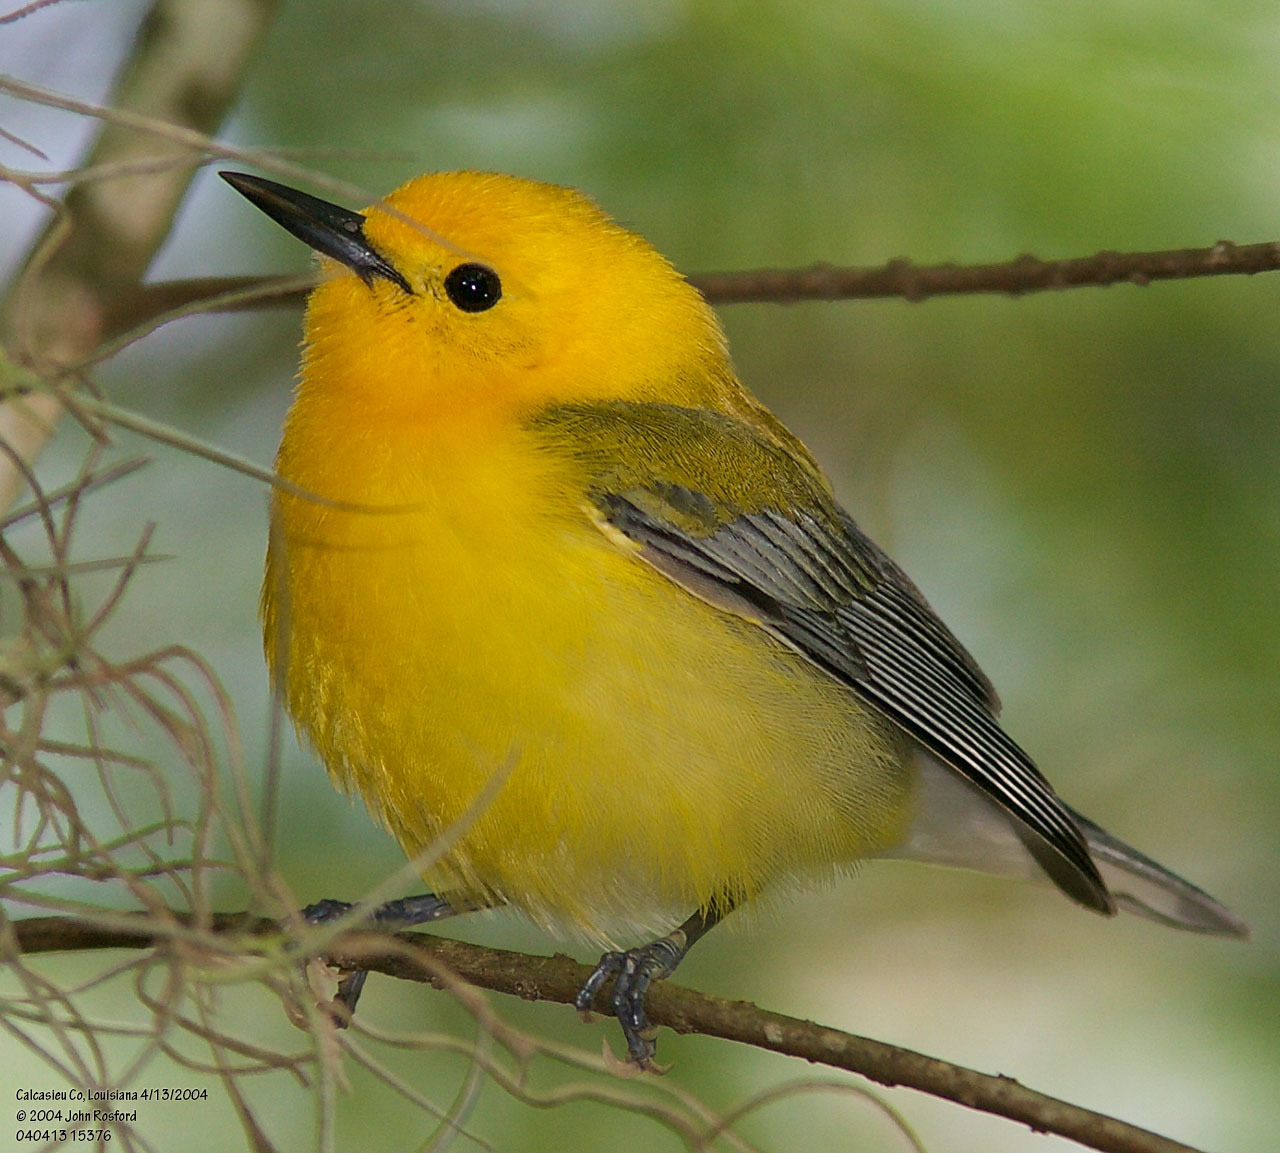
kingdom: Animalia
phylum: Chordata
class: Aves
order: Passeriformes
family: Parulidae
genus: Protonotaria
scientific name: Protonotaria citrea
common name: Prothonotary warbler
